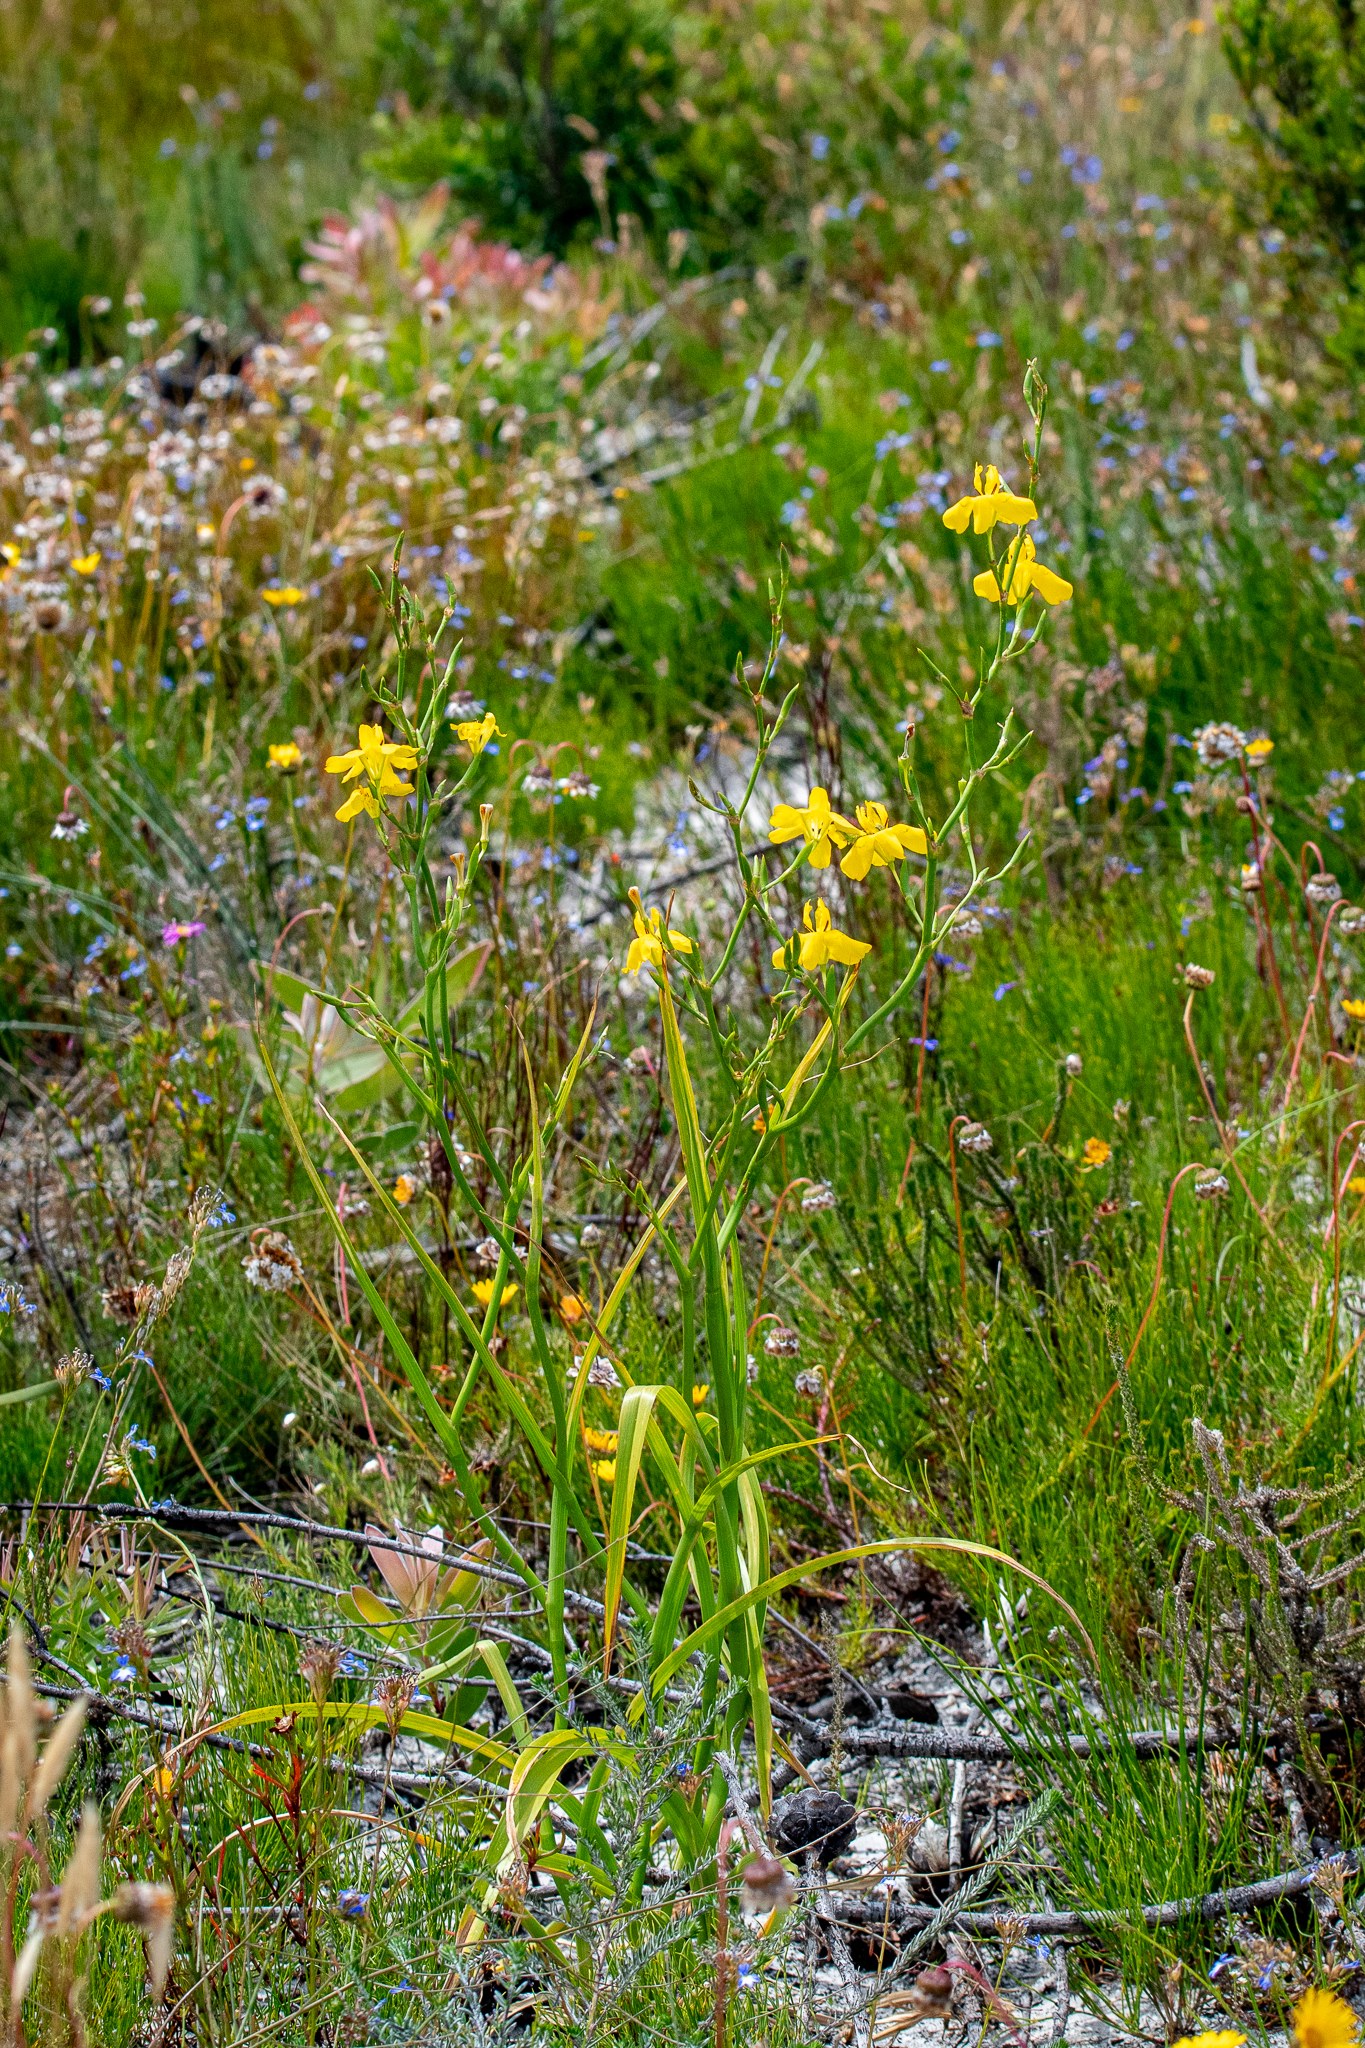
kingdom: Plantae
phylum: Tracheophyta
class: Liliopsida
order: Asparagales
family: Iridaceae
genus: Moraea
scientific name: Moraea ramosissima
